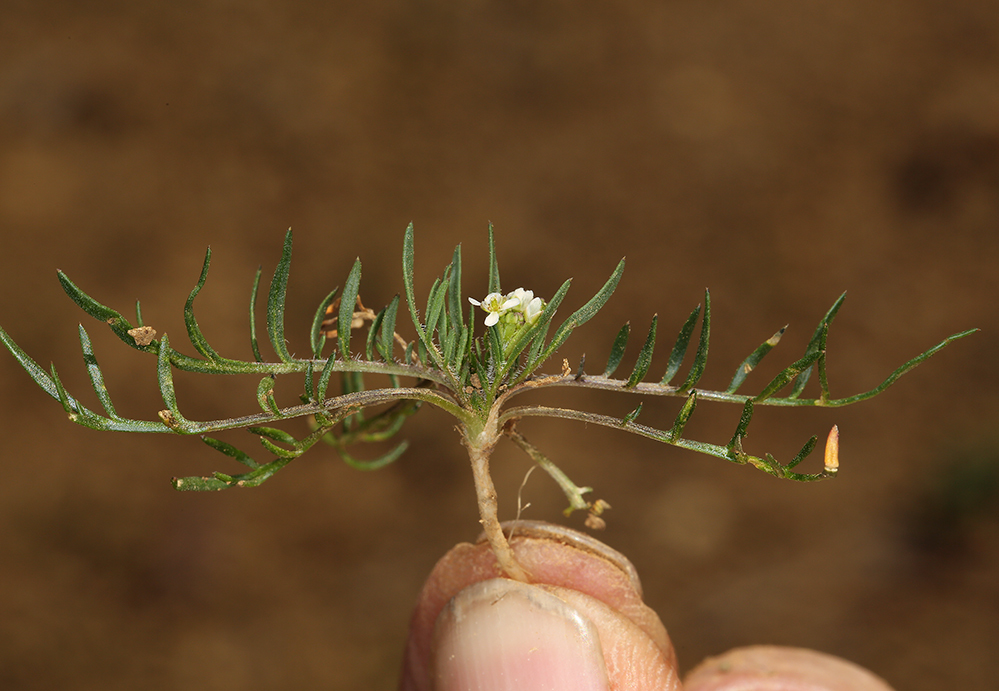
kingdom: Plantae
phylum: Tracheophyta
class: Magnoliopsida
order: Brassicales
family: Brassicaceae
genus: Lepidium
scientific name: Lepidium nitidum
